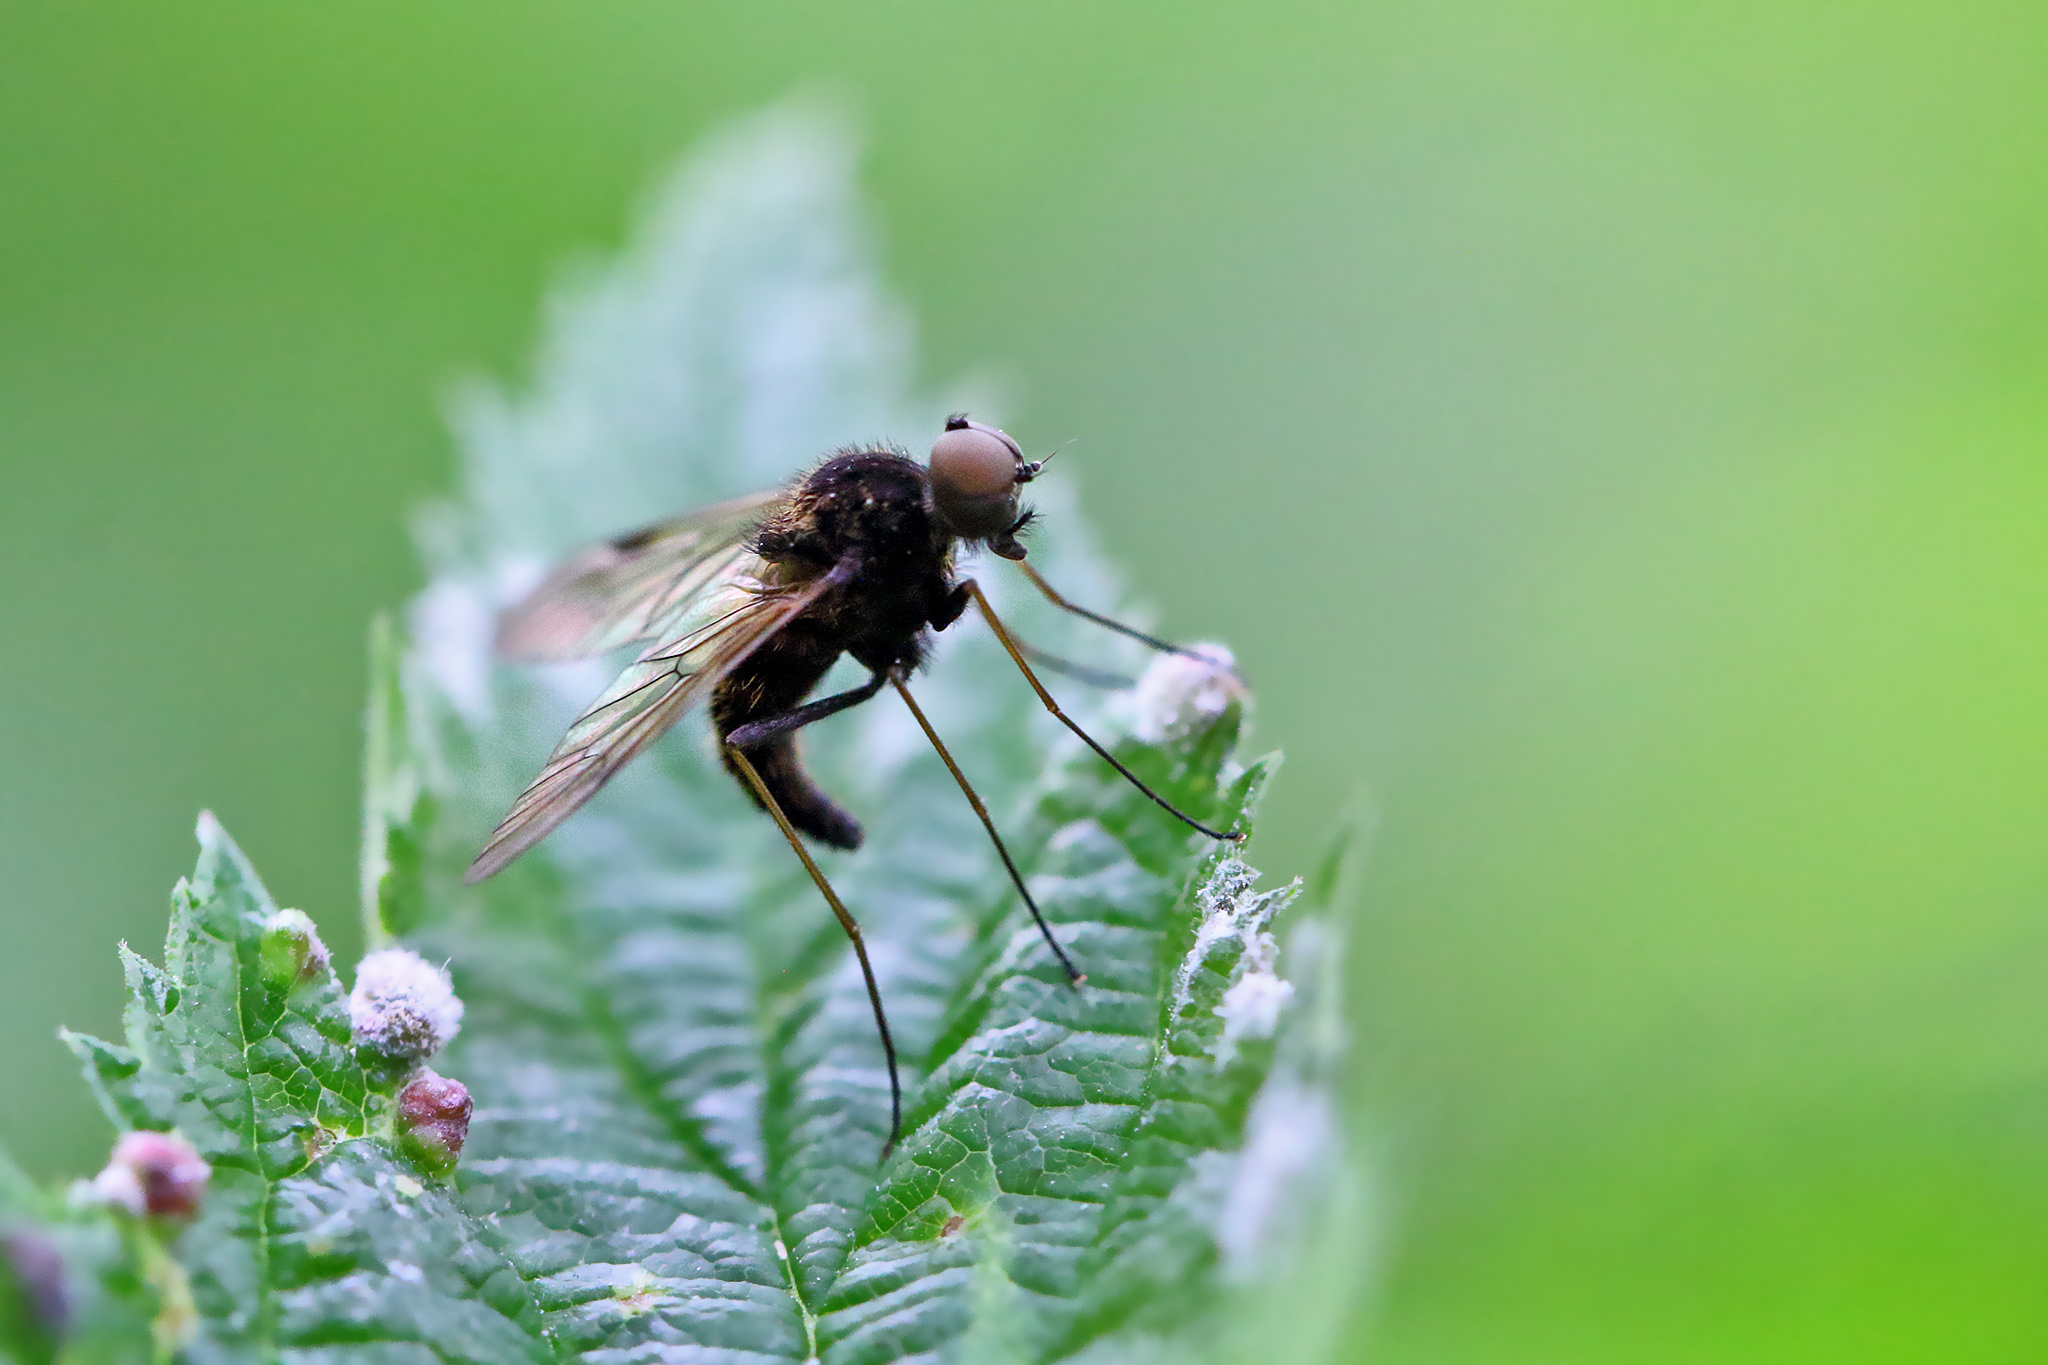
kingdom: Animalia
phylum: Arthropoda
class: Insecta
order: Diptera
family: Rhagionidae
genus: Chrysopilus
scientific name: Chrysopilus cristatus
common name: Black snipefly
